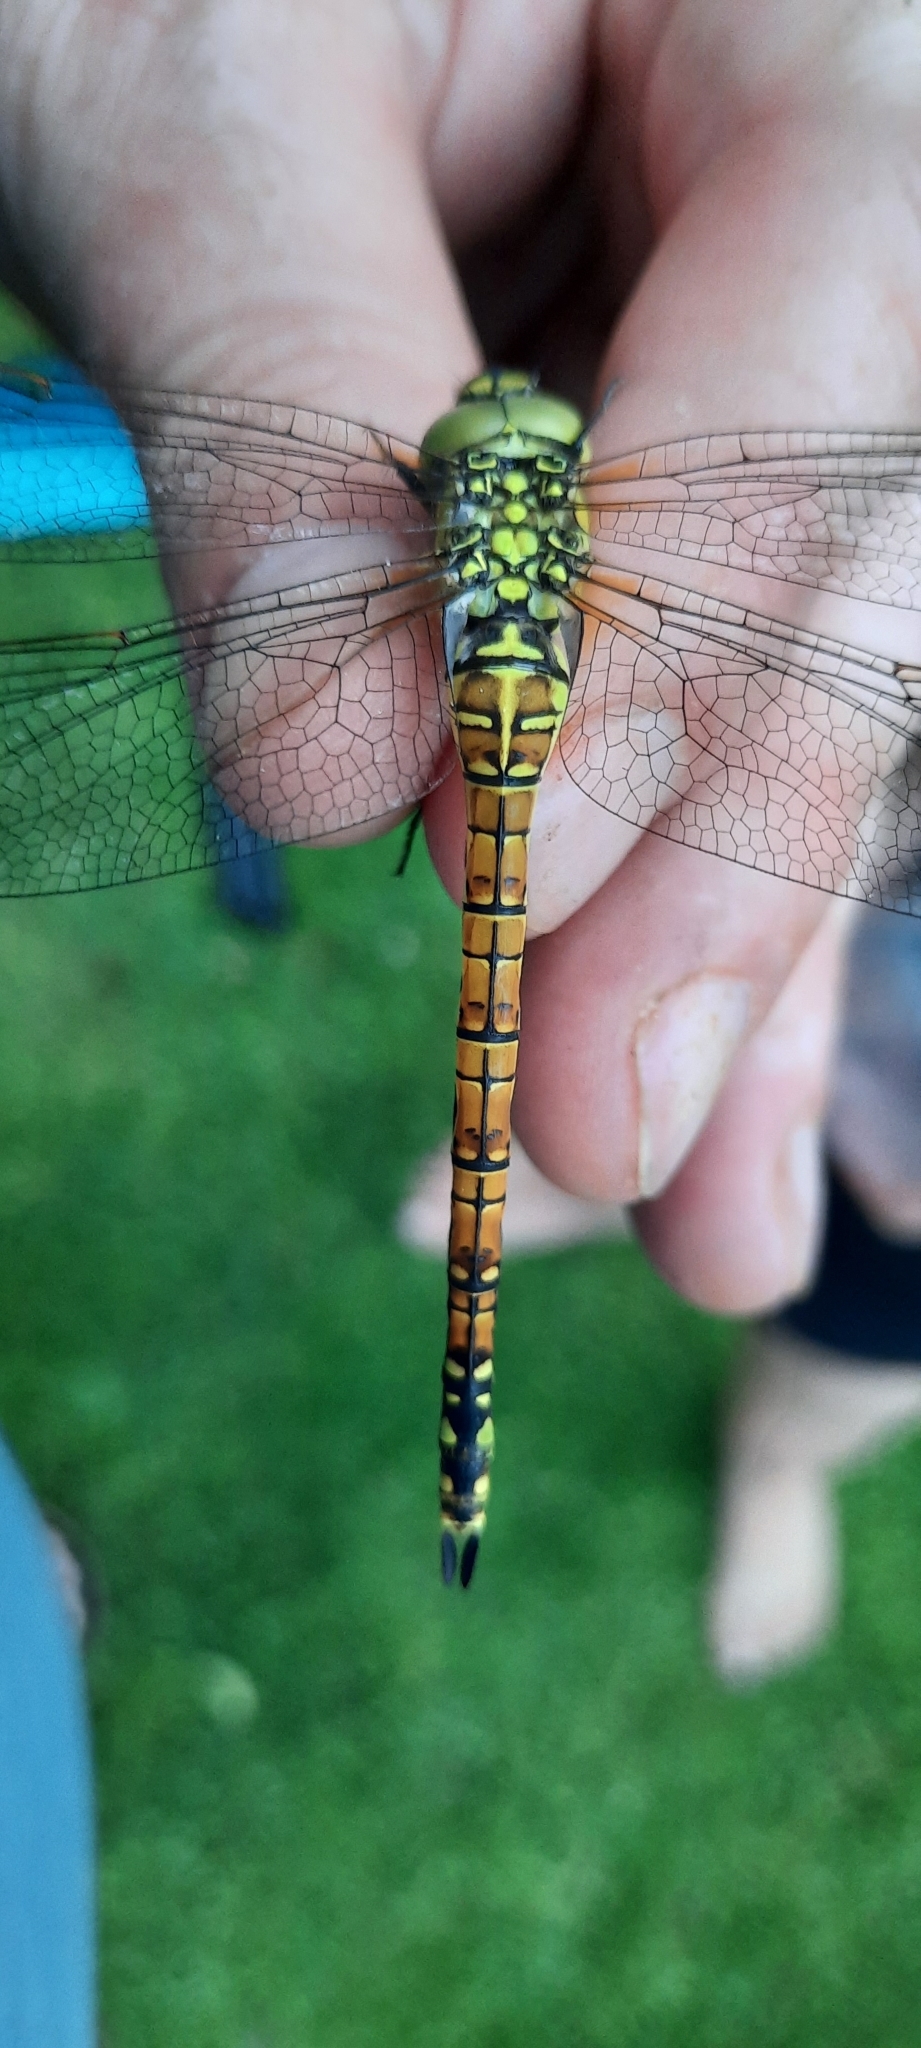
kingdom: Animalia
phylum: Arthropoda
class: Insecta
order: Odonata
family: Aeshnidae
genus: Aeshna
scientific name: Aeshna affinis
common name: Southern migrant hawker
